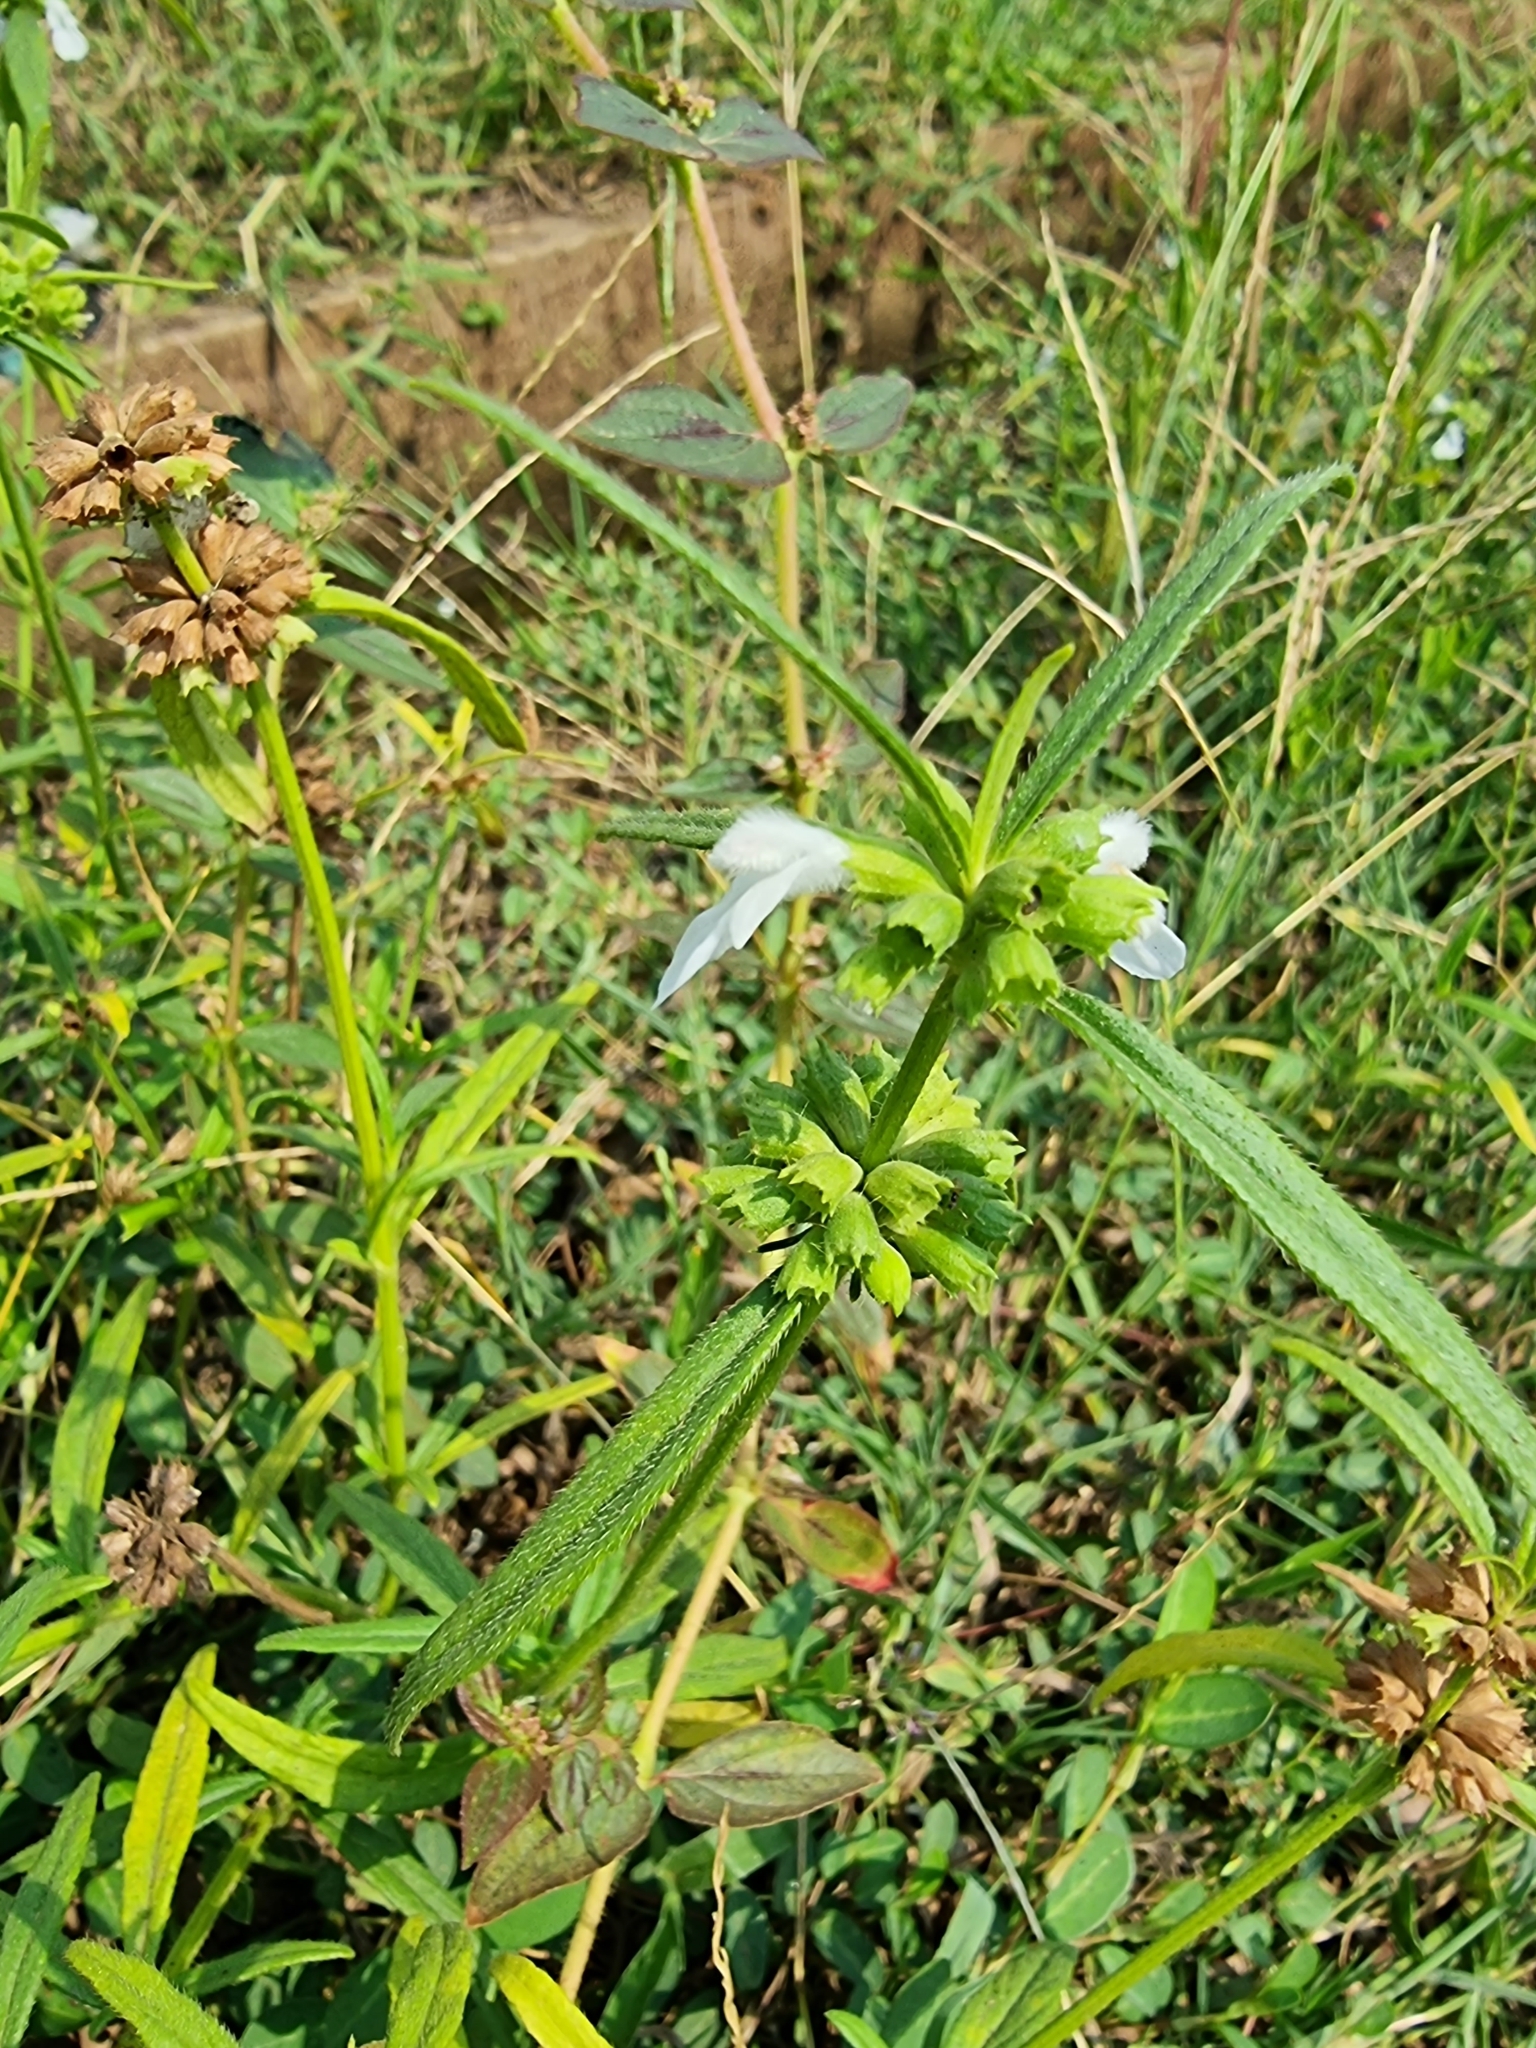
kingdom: Plantae
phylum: Tracheophyta
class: Magnoliopsida
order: Lamiales
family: Lamiaceae
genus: Leucas
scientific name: Leucas aspera
